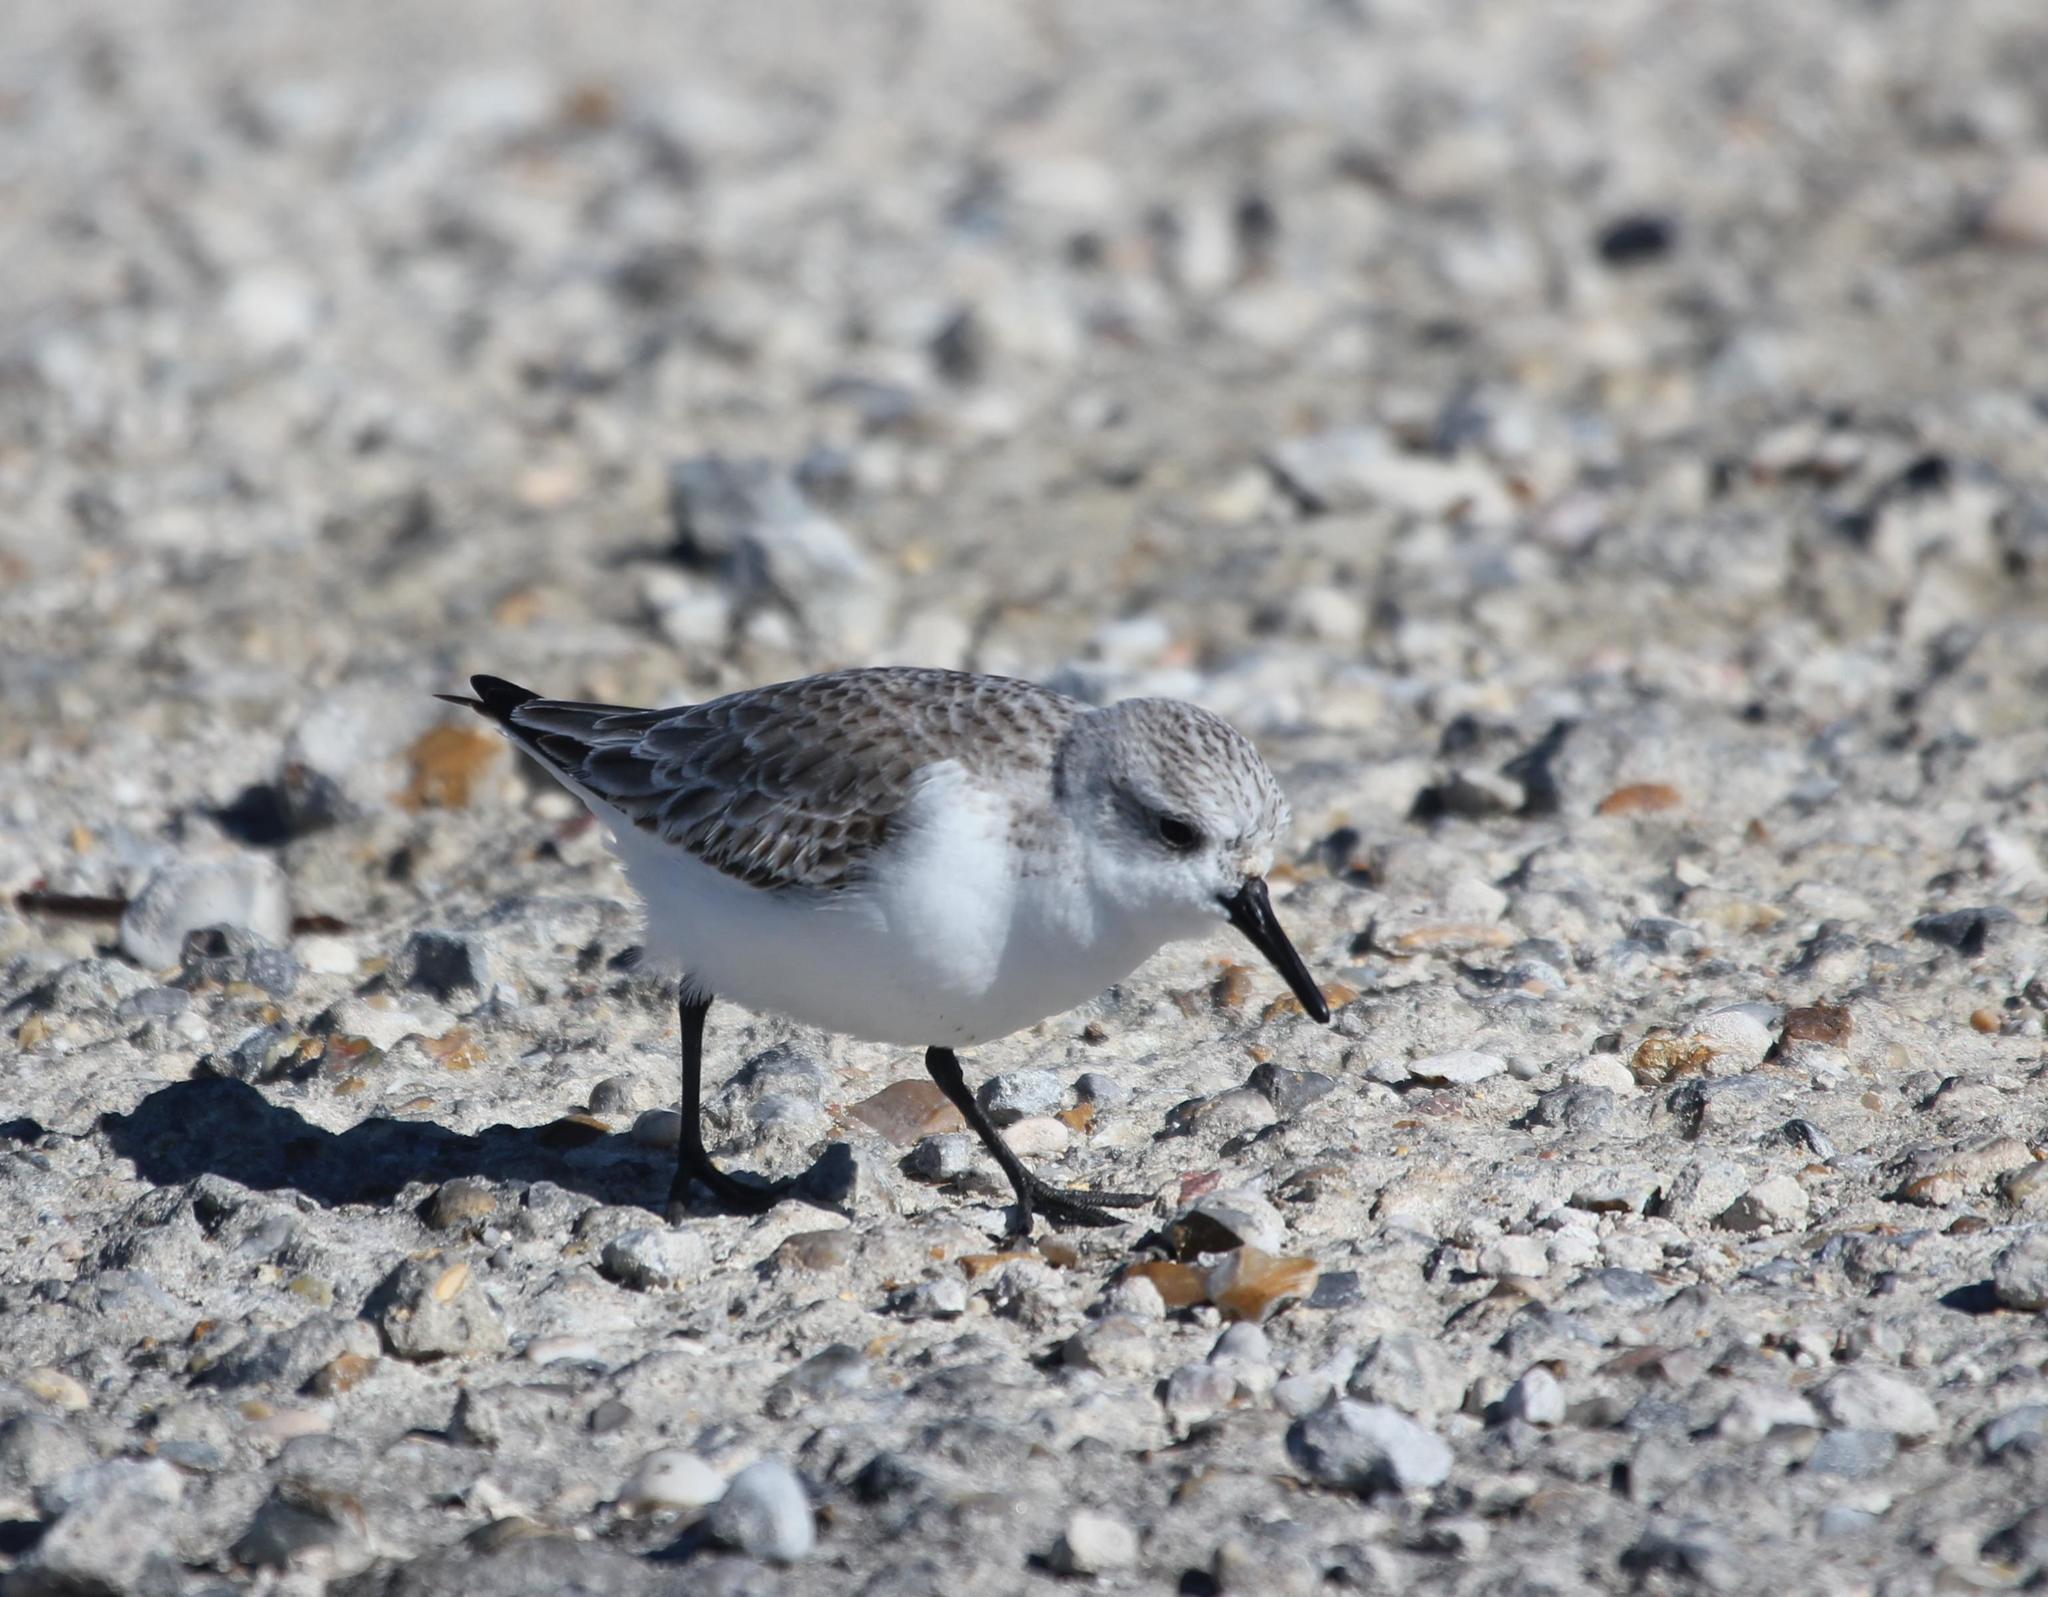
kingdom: Animalia
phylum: Chordata
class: Aves
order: Charadriiformes
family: Scolopacidae
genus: Calidris
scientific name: Calidris alba
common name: Sanderling
